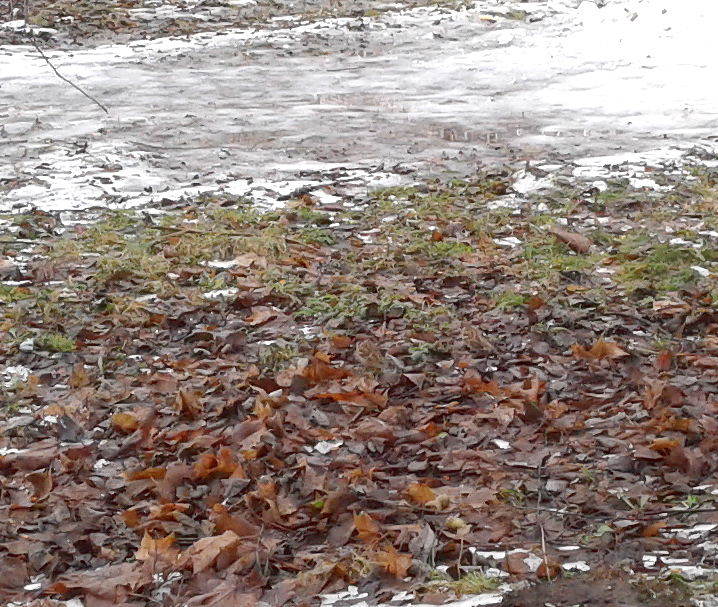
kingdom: Animalia
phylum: Chordata
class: Aves
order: Passeriformes
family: Passeridae
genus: Passer
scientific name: Passer montanus
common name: Eurasian tree sparrow
